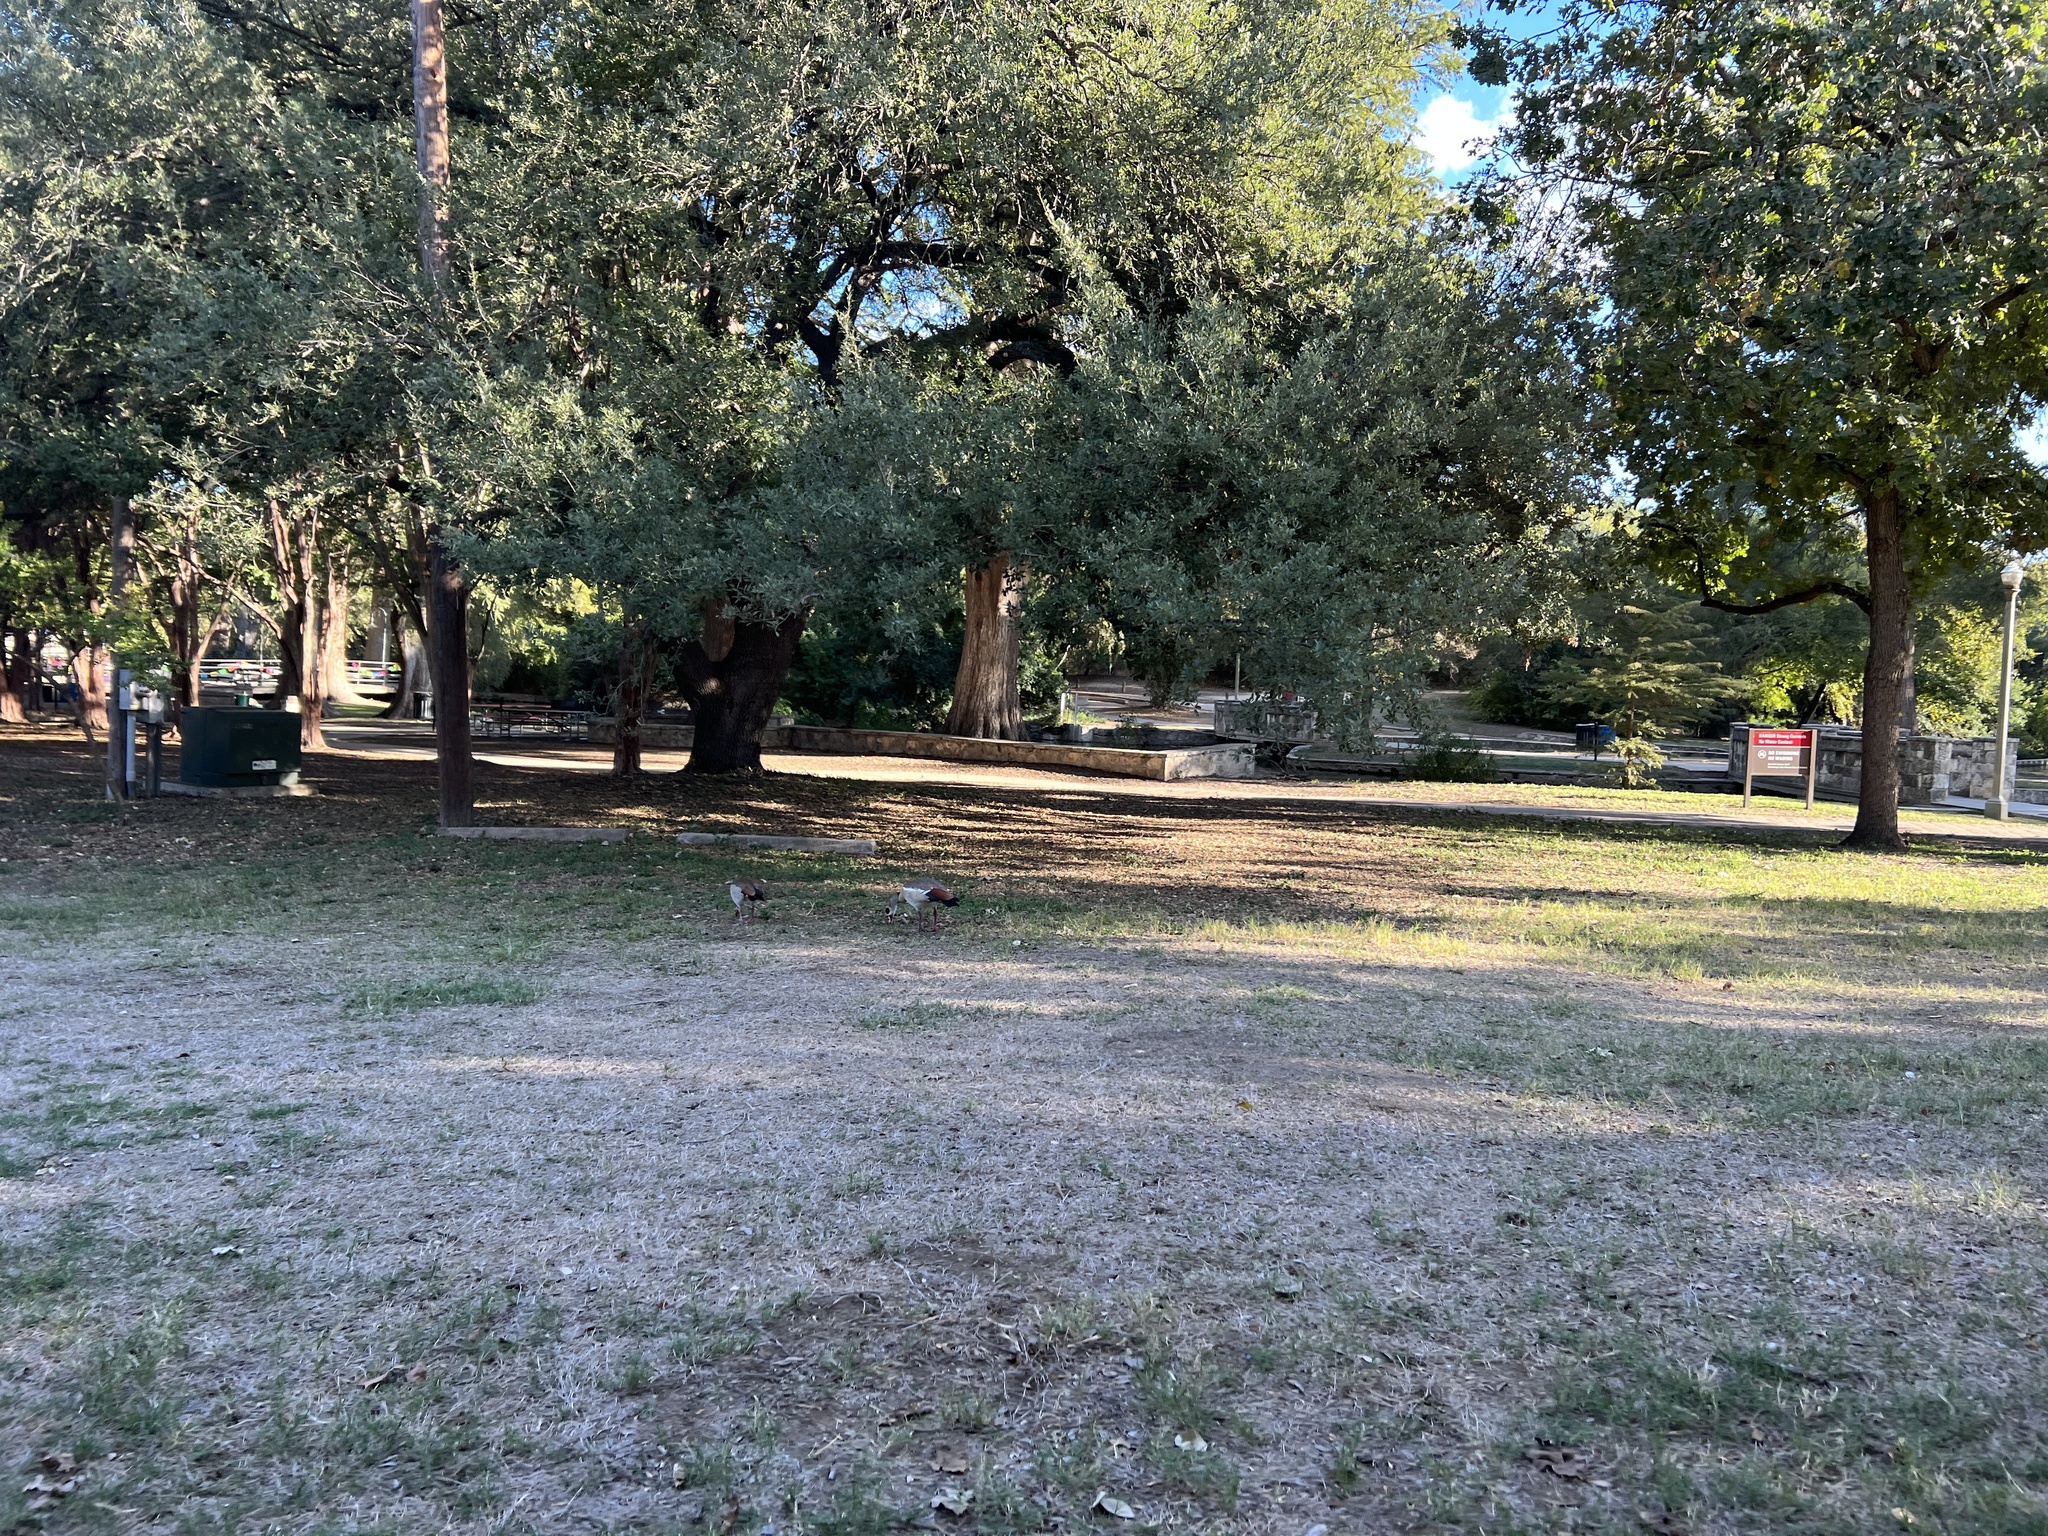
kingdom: Animalia
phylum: Chordata
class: Aves
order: Anseriformes
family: Anatidae
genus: Alopochen
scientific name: Alopochen aegyptiaca
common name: Egyptian goose
